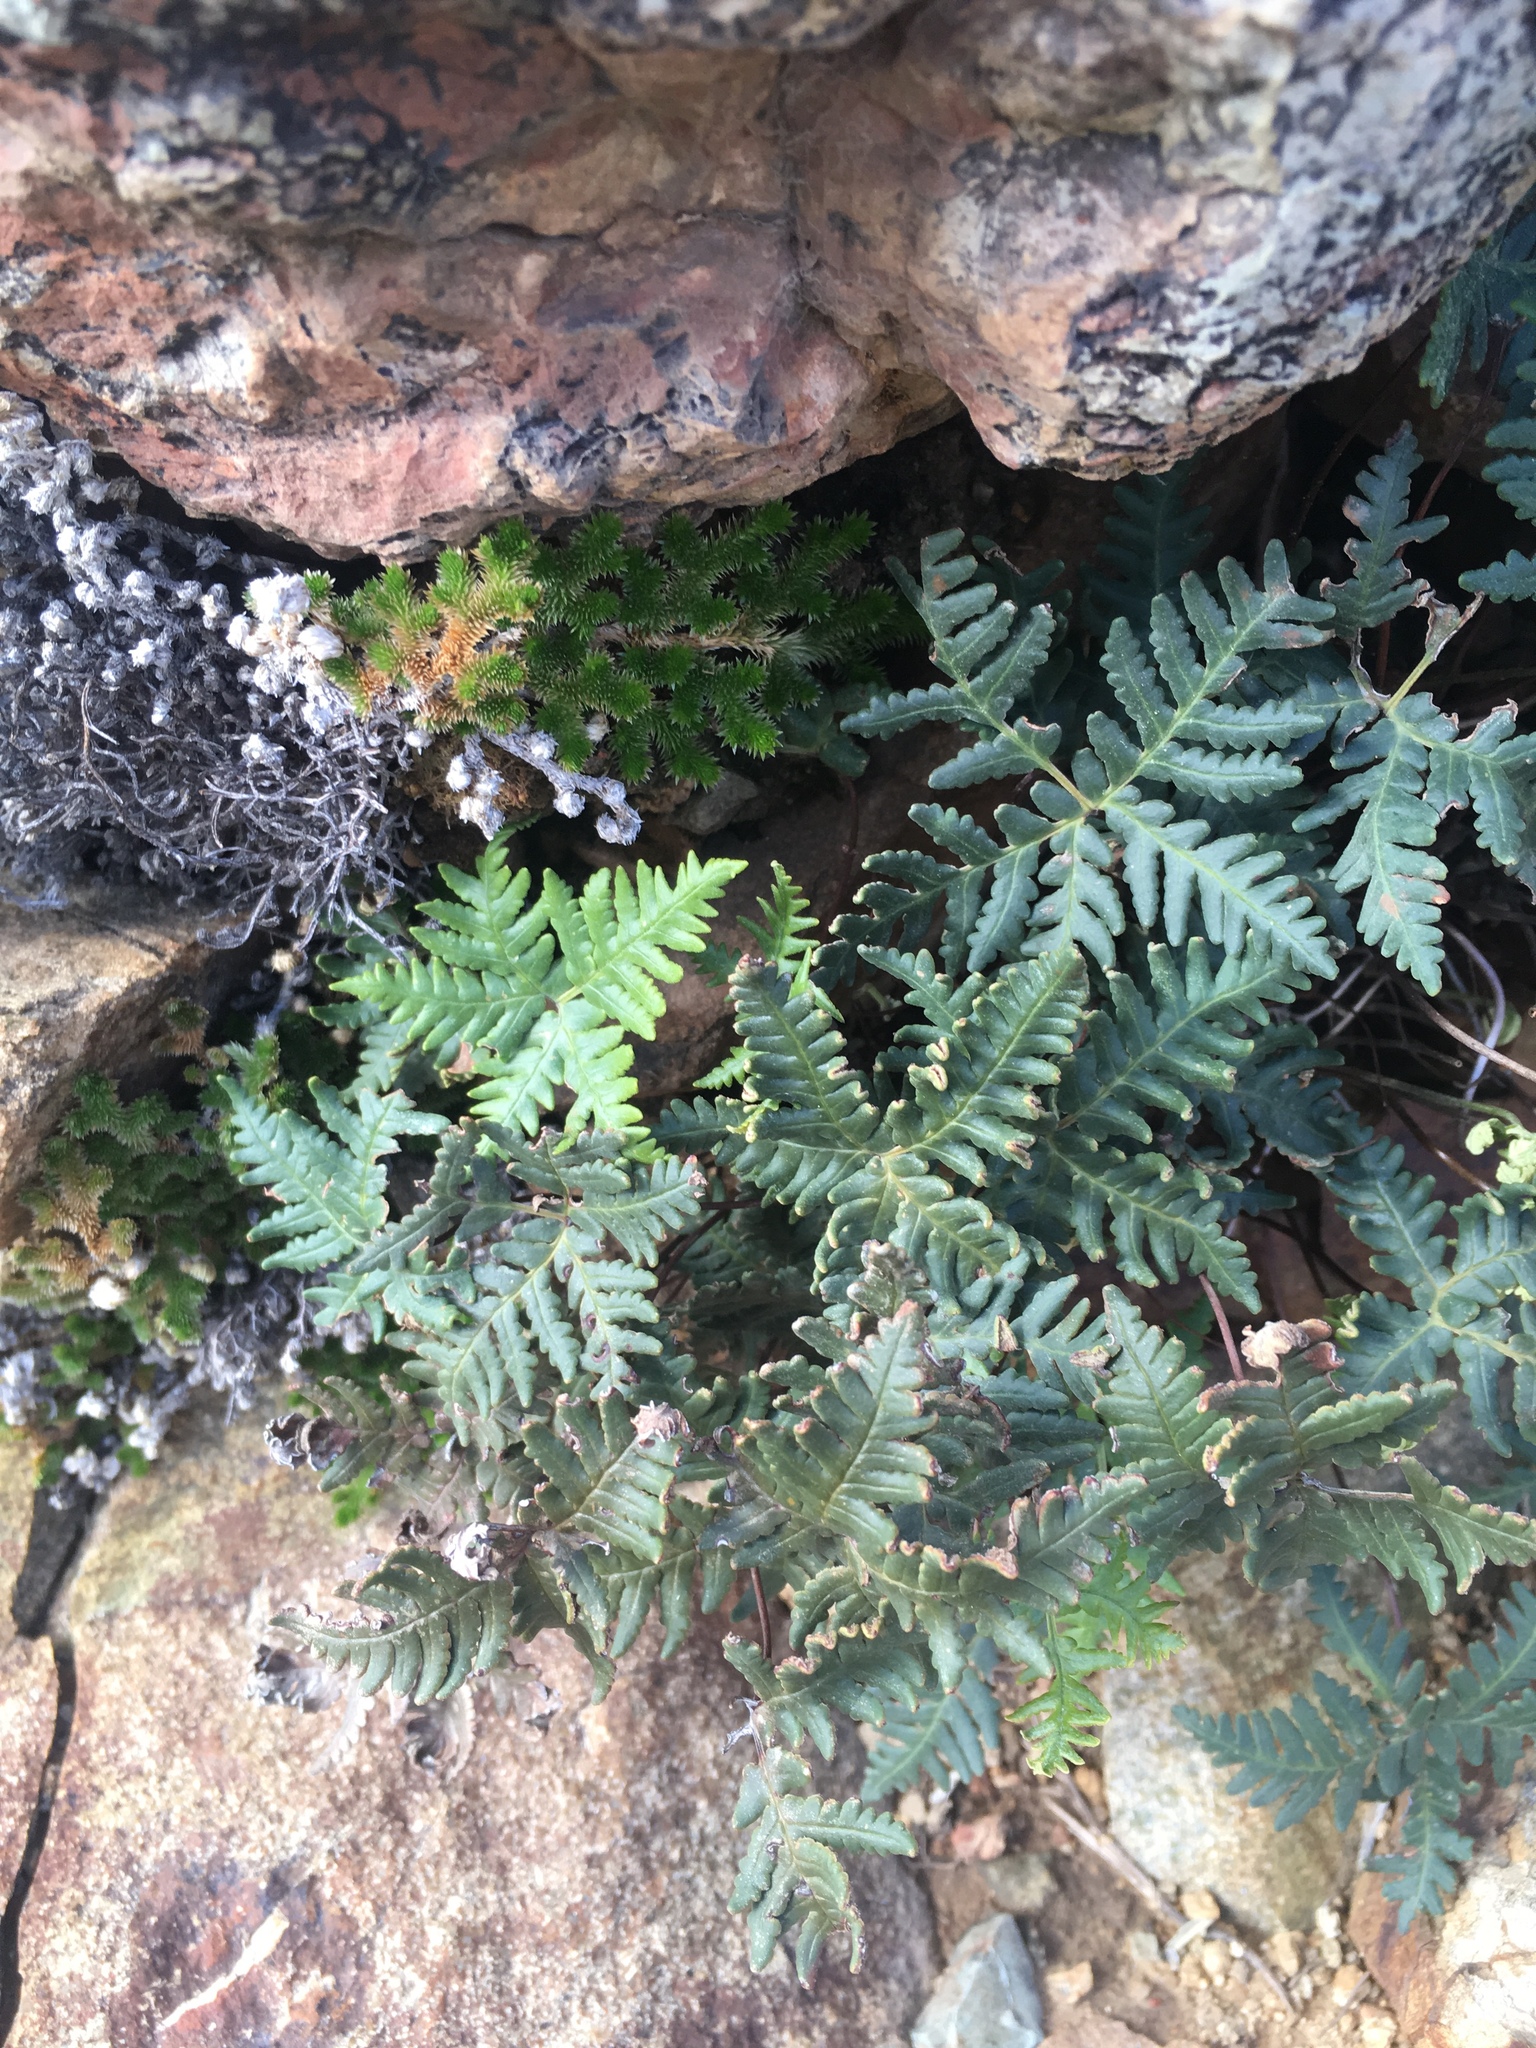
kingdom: Plantae
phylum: Tracheophyta
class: Polypodiopsida
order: Polypodiales
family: Pteridaceae
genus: Notholaena
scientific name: Notholaena standleyi
